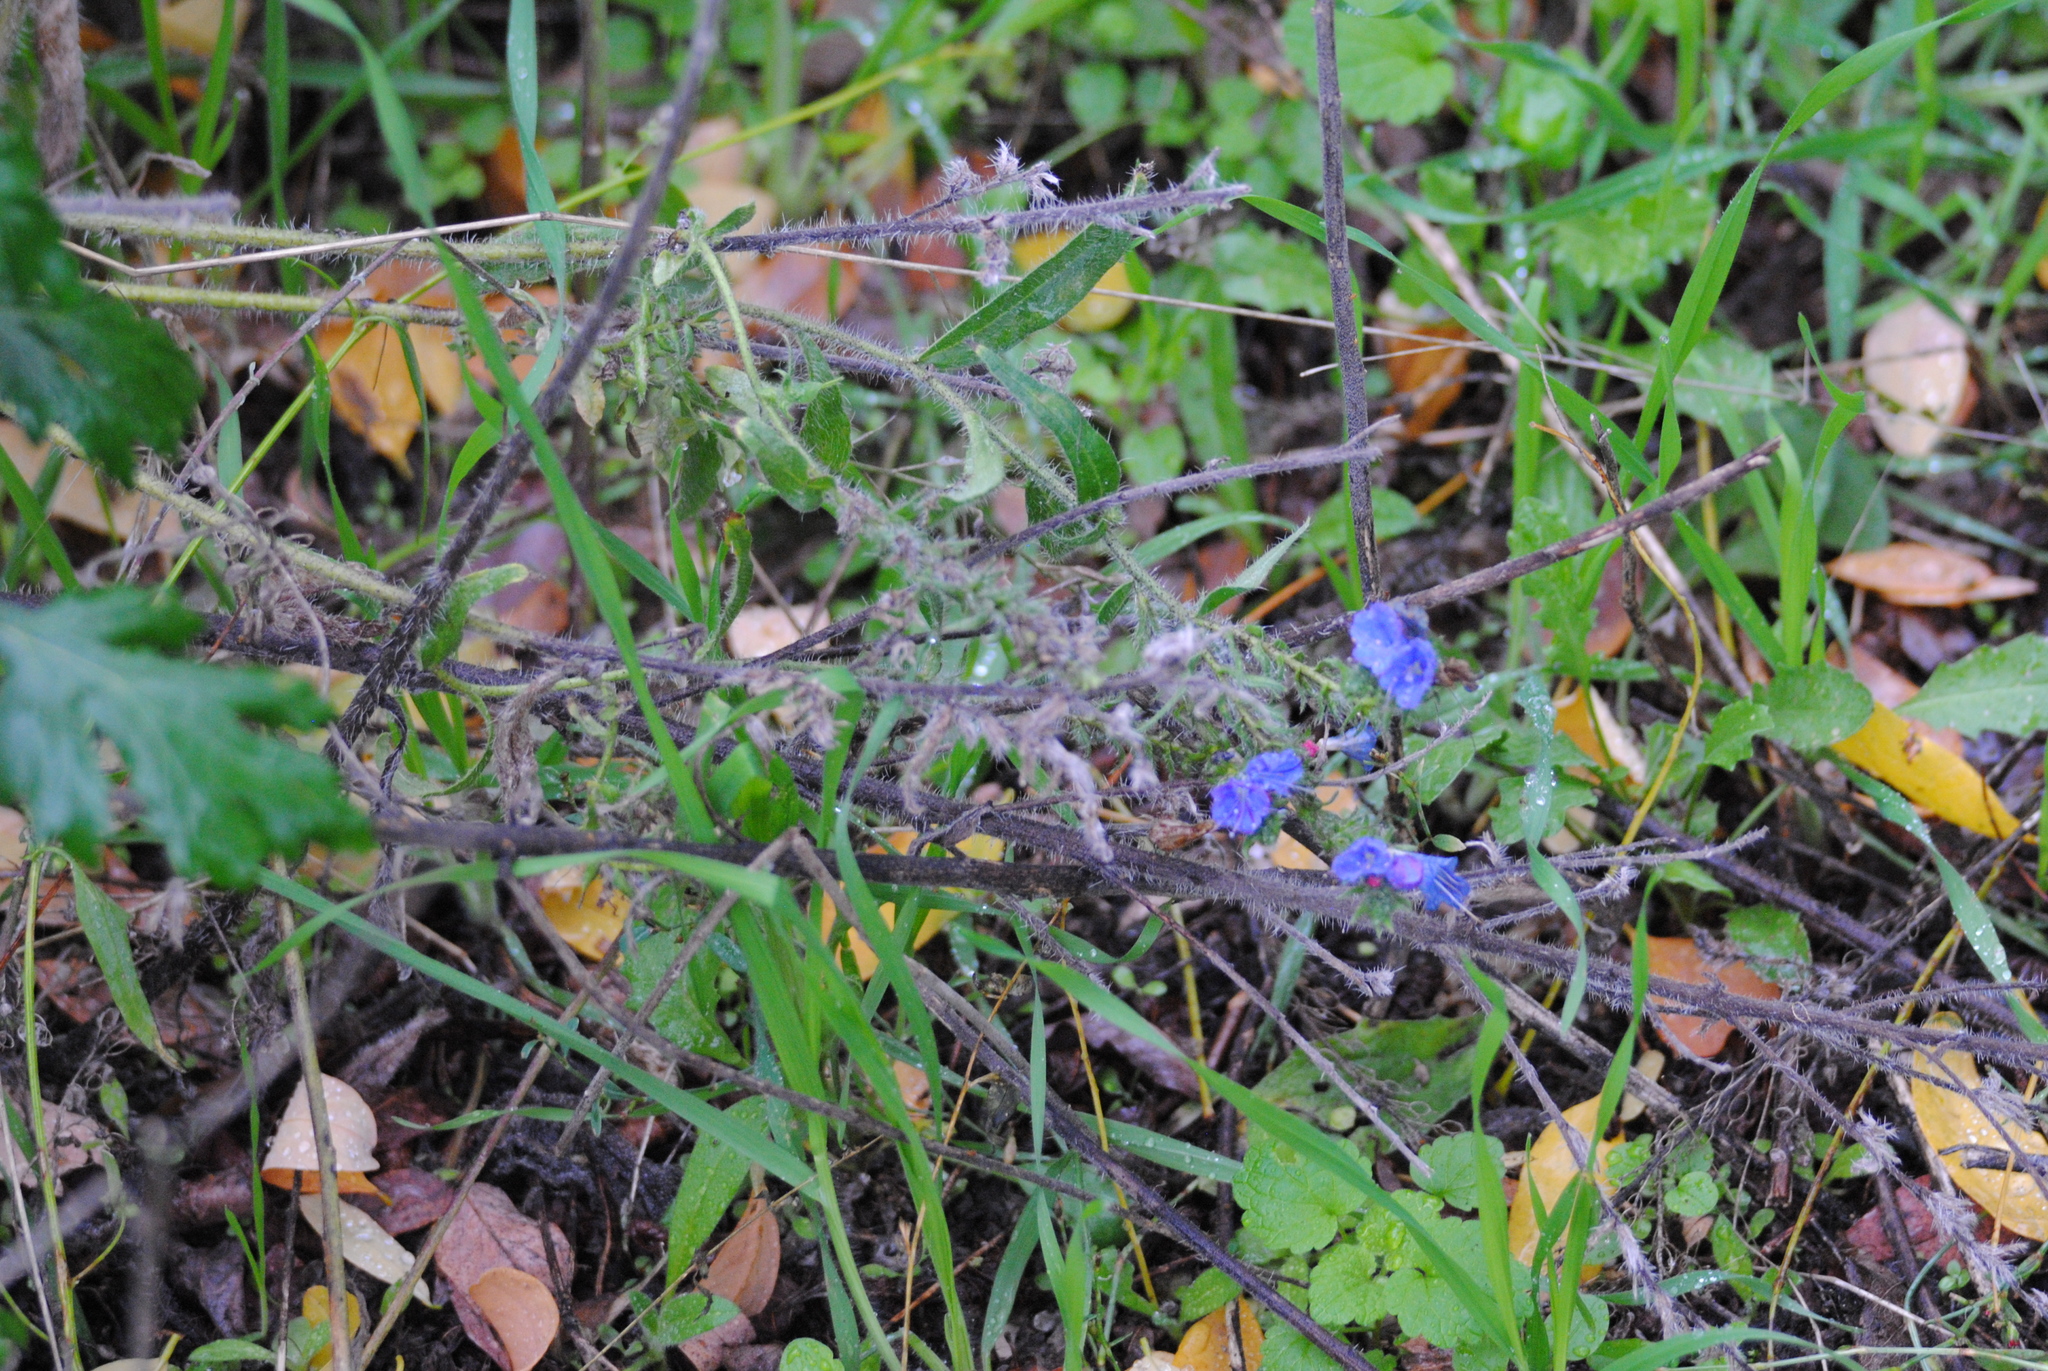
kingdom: Plantae
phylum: Tracheophyta
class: Magnoliopsida
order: Boraginales
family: Boraginaceae
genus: Echium
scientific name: Echium vulgare
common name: Common viper's bugloss
